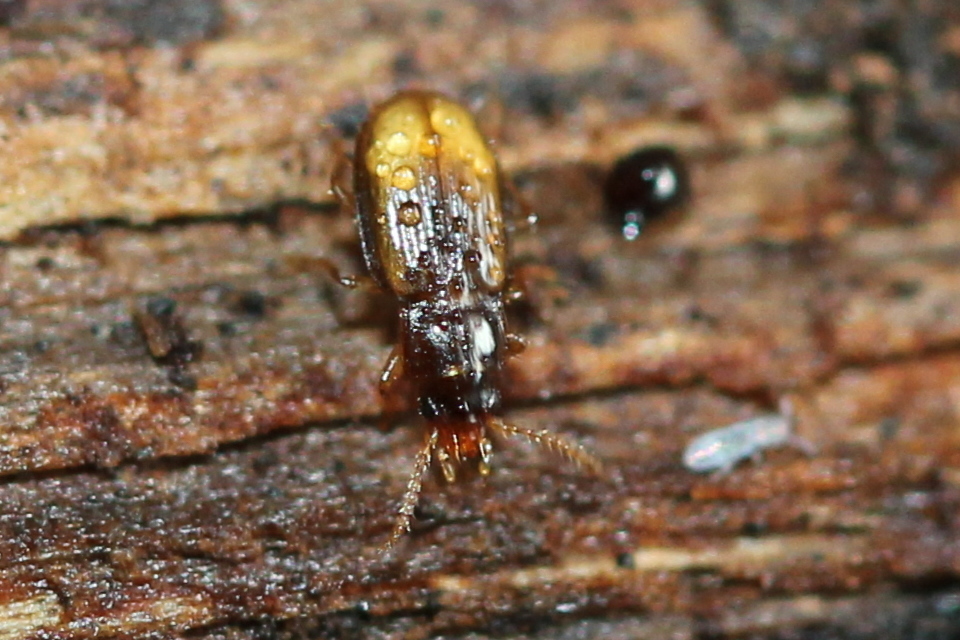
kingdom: Animalia
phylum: Arthropoda
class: Insecta
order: Coleoptera
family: Carabidae
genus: Mioptachys
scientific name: Mioptachys flavicauda
